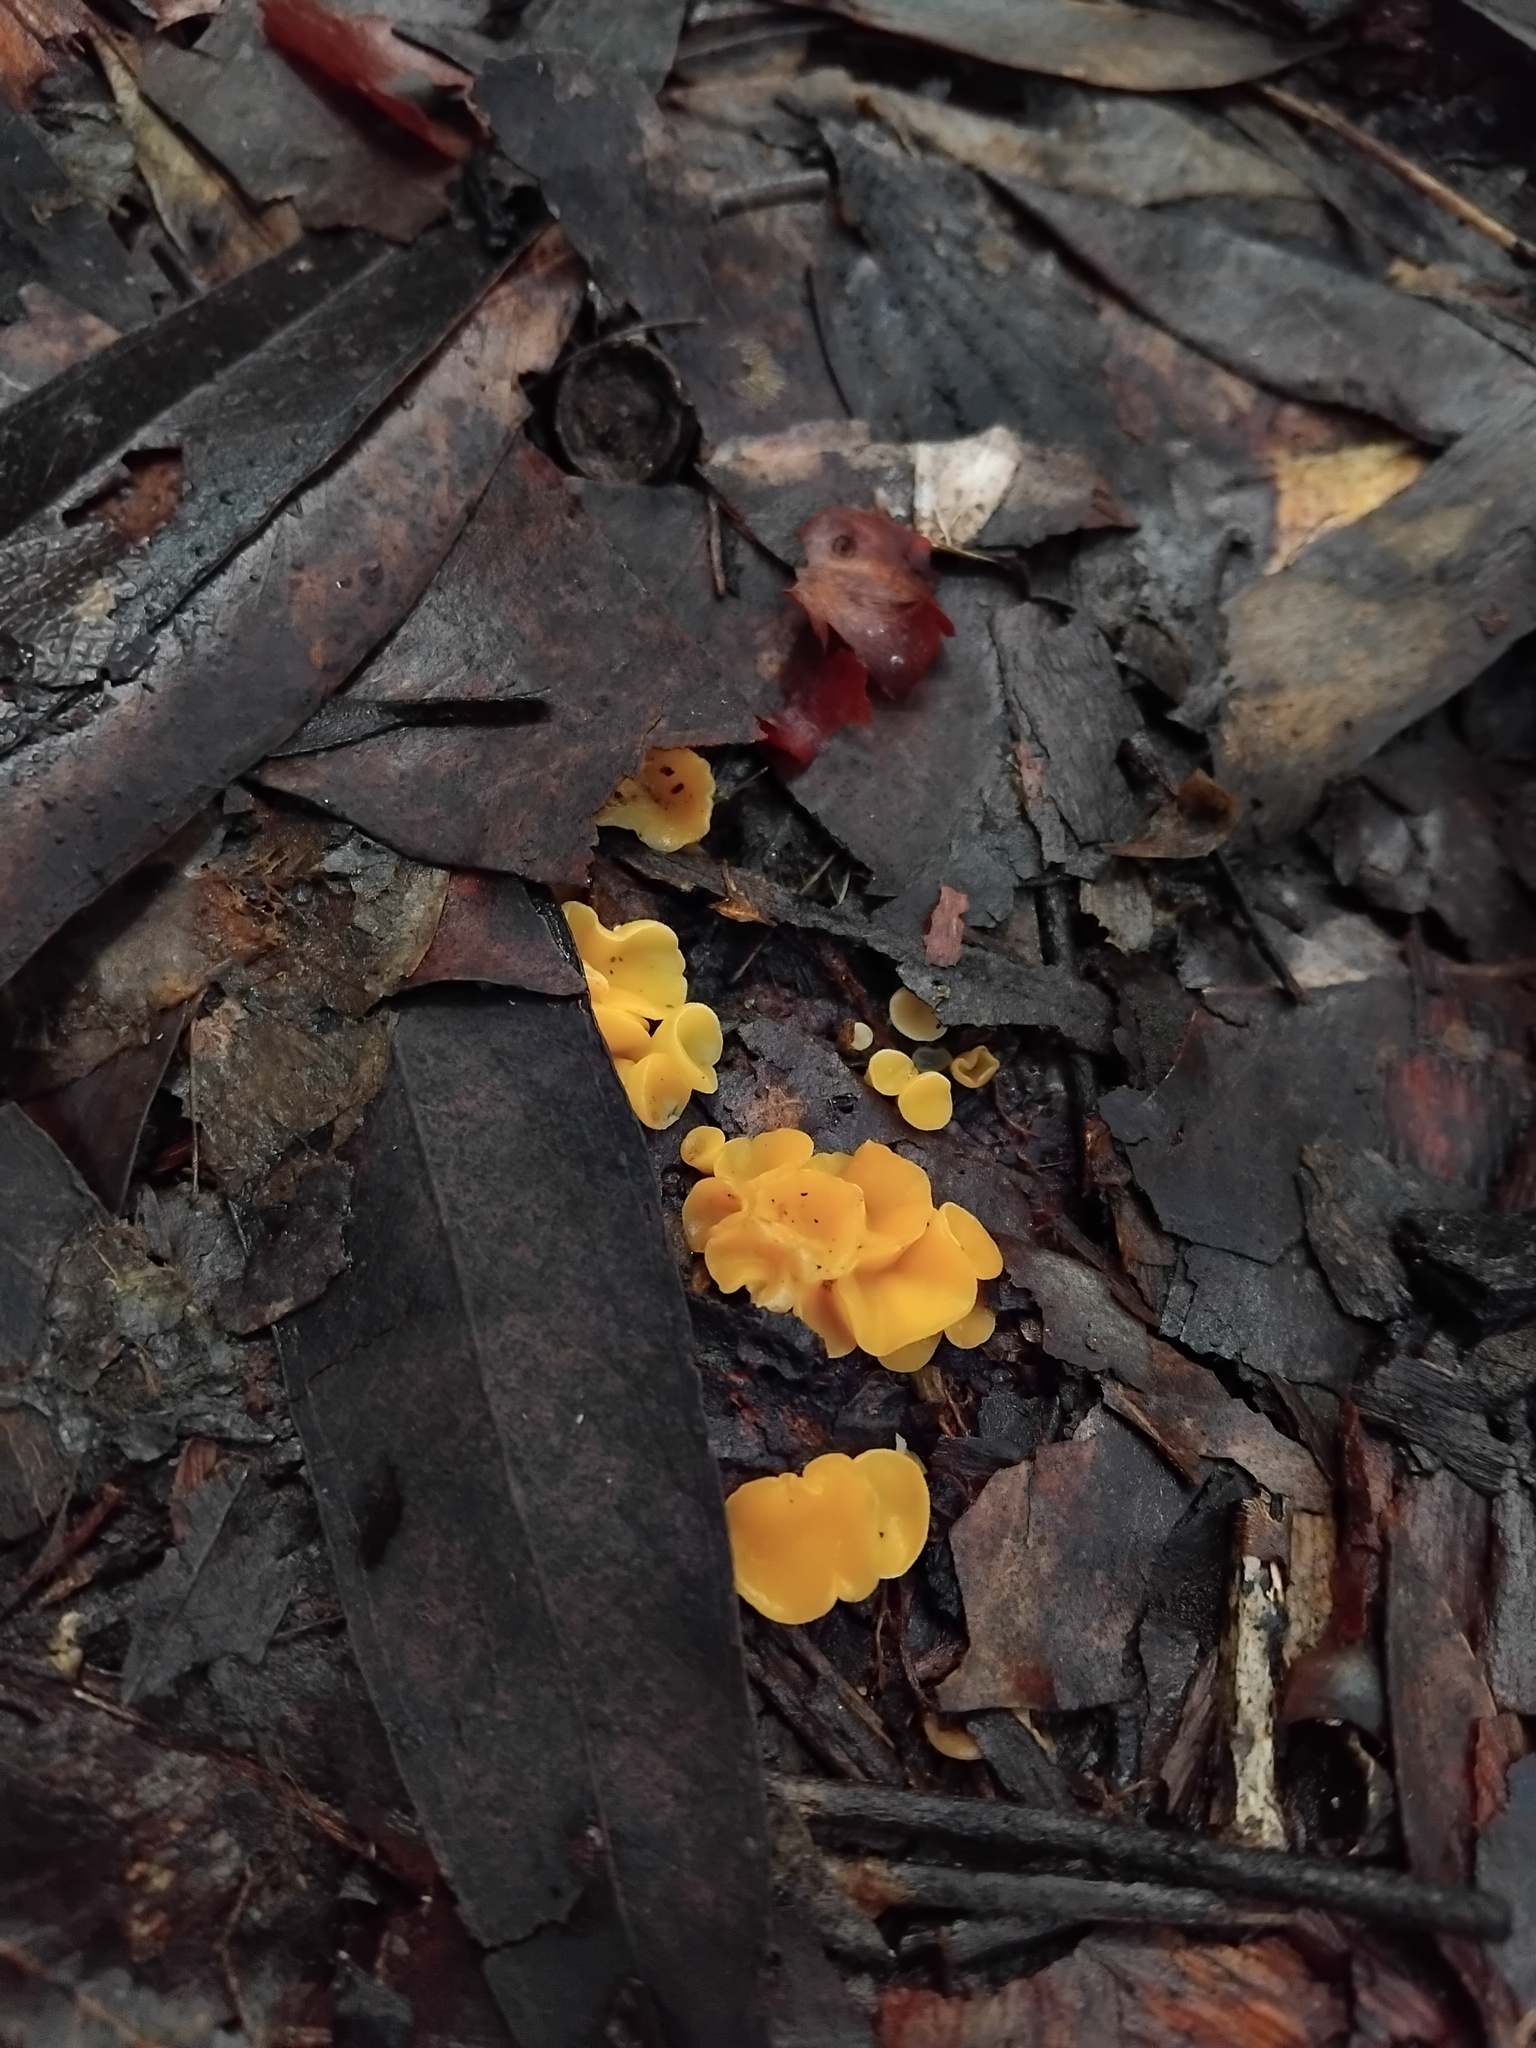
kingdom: Fungi
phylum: Ascomycota
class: Leotiomycetes
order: Helotiales
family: Helotiaceae
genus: Phaeohelotium
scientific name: Phaeohelotium baileyanum
